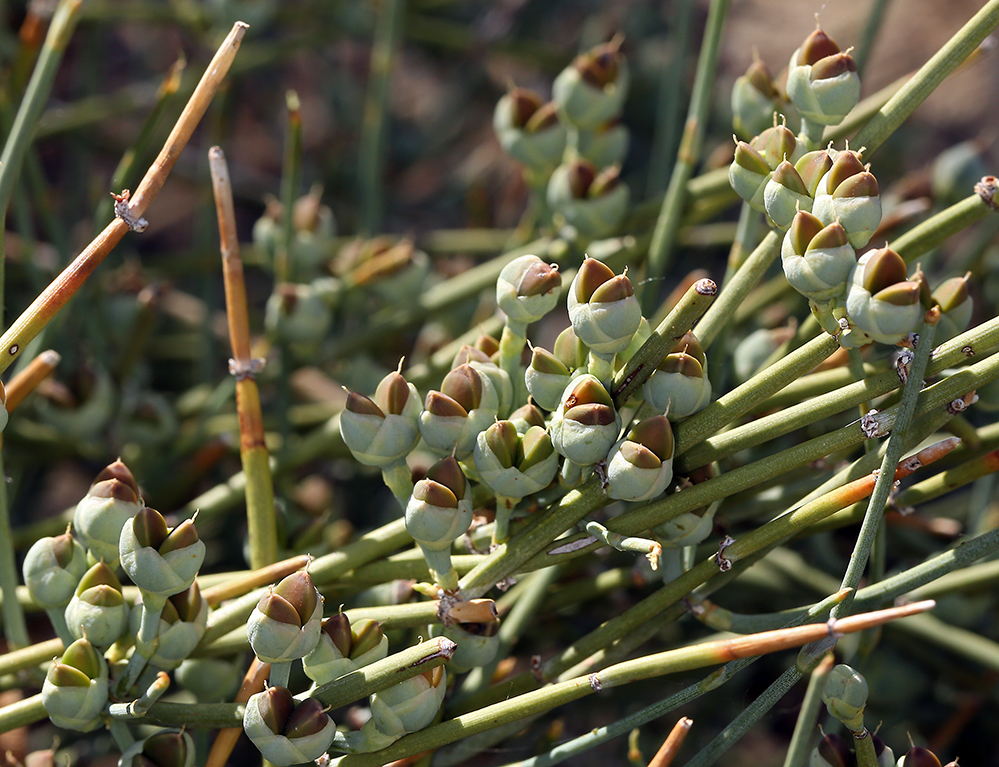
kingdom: Plantae
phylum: Tracheophyta
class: Gnetopsida
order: Ephedrales
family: Ephedraceae
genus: Ephedra
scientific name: Ephedra nevadensis
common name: Gray ephedra
